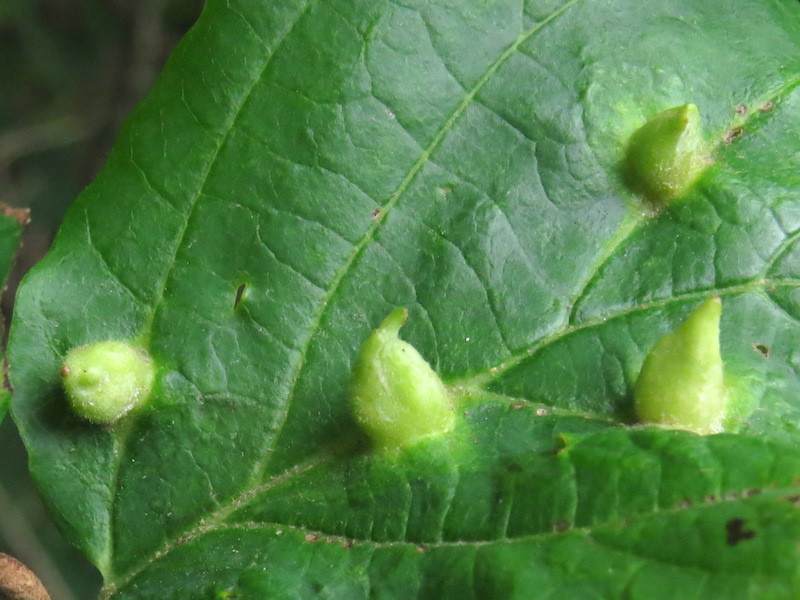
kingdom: Animalia
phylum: Arthropoda
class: Insecta
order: Hemiptera
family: Aphididae
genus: Hormaphis
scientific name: Hormaphis hamamelidis
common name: Witch-hazel cone gall aphid
